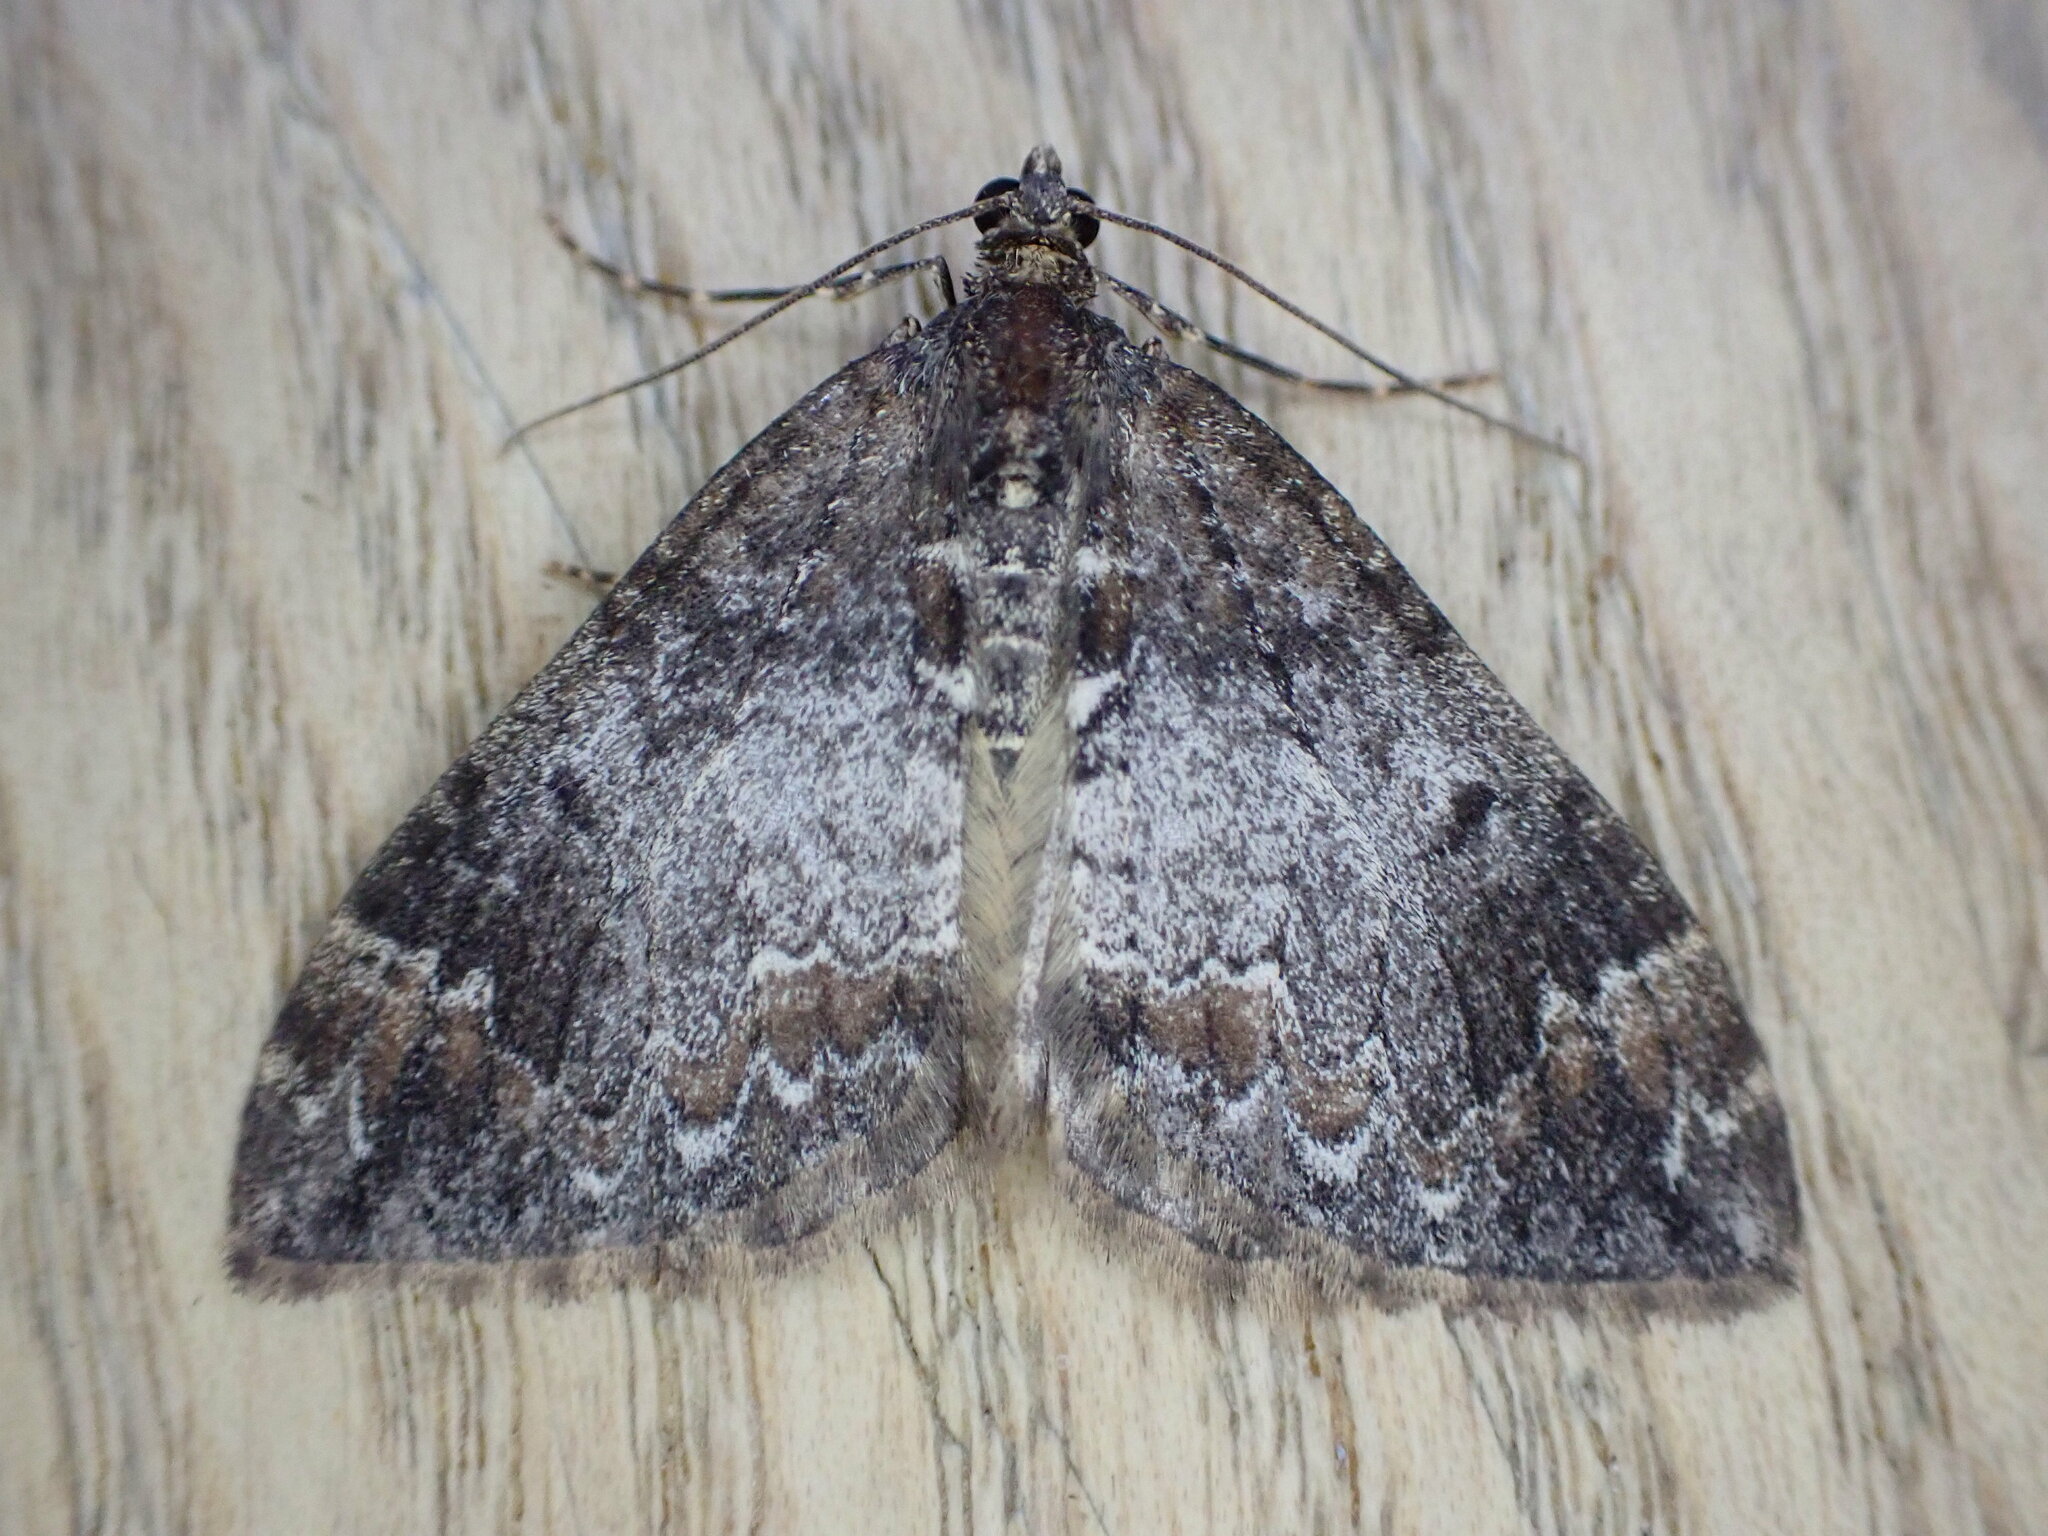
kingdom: Animalia
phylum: Arthropoda
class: Insecta
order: Lepidoptera
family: Geometridae
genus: Dysstroma
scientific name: Dysstroma truncata
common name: Common marbled carpet
